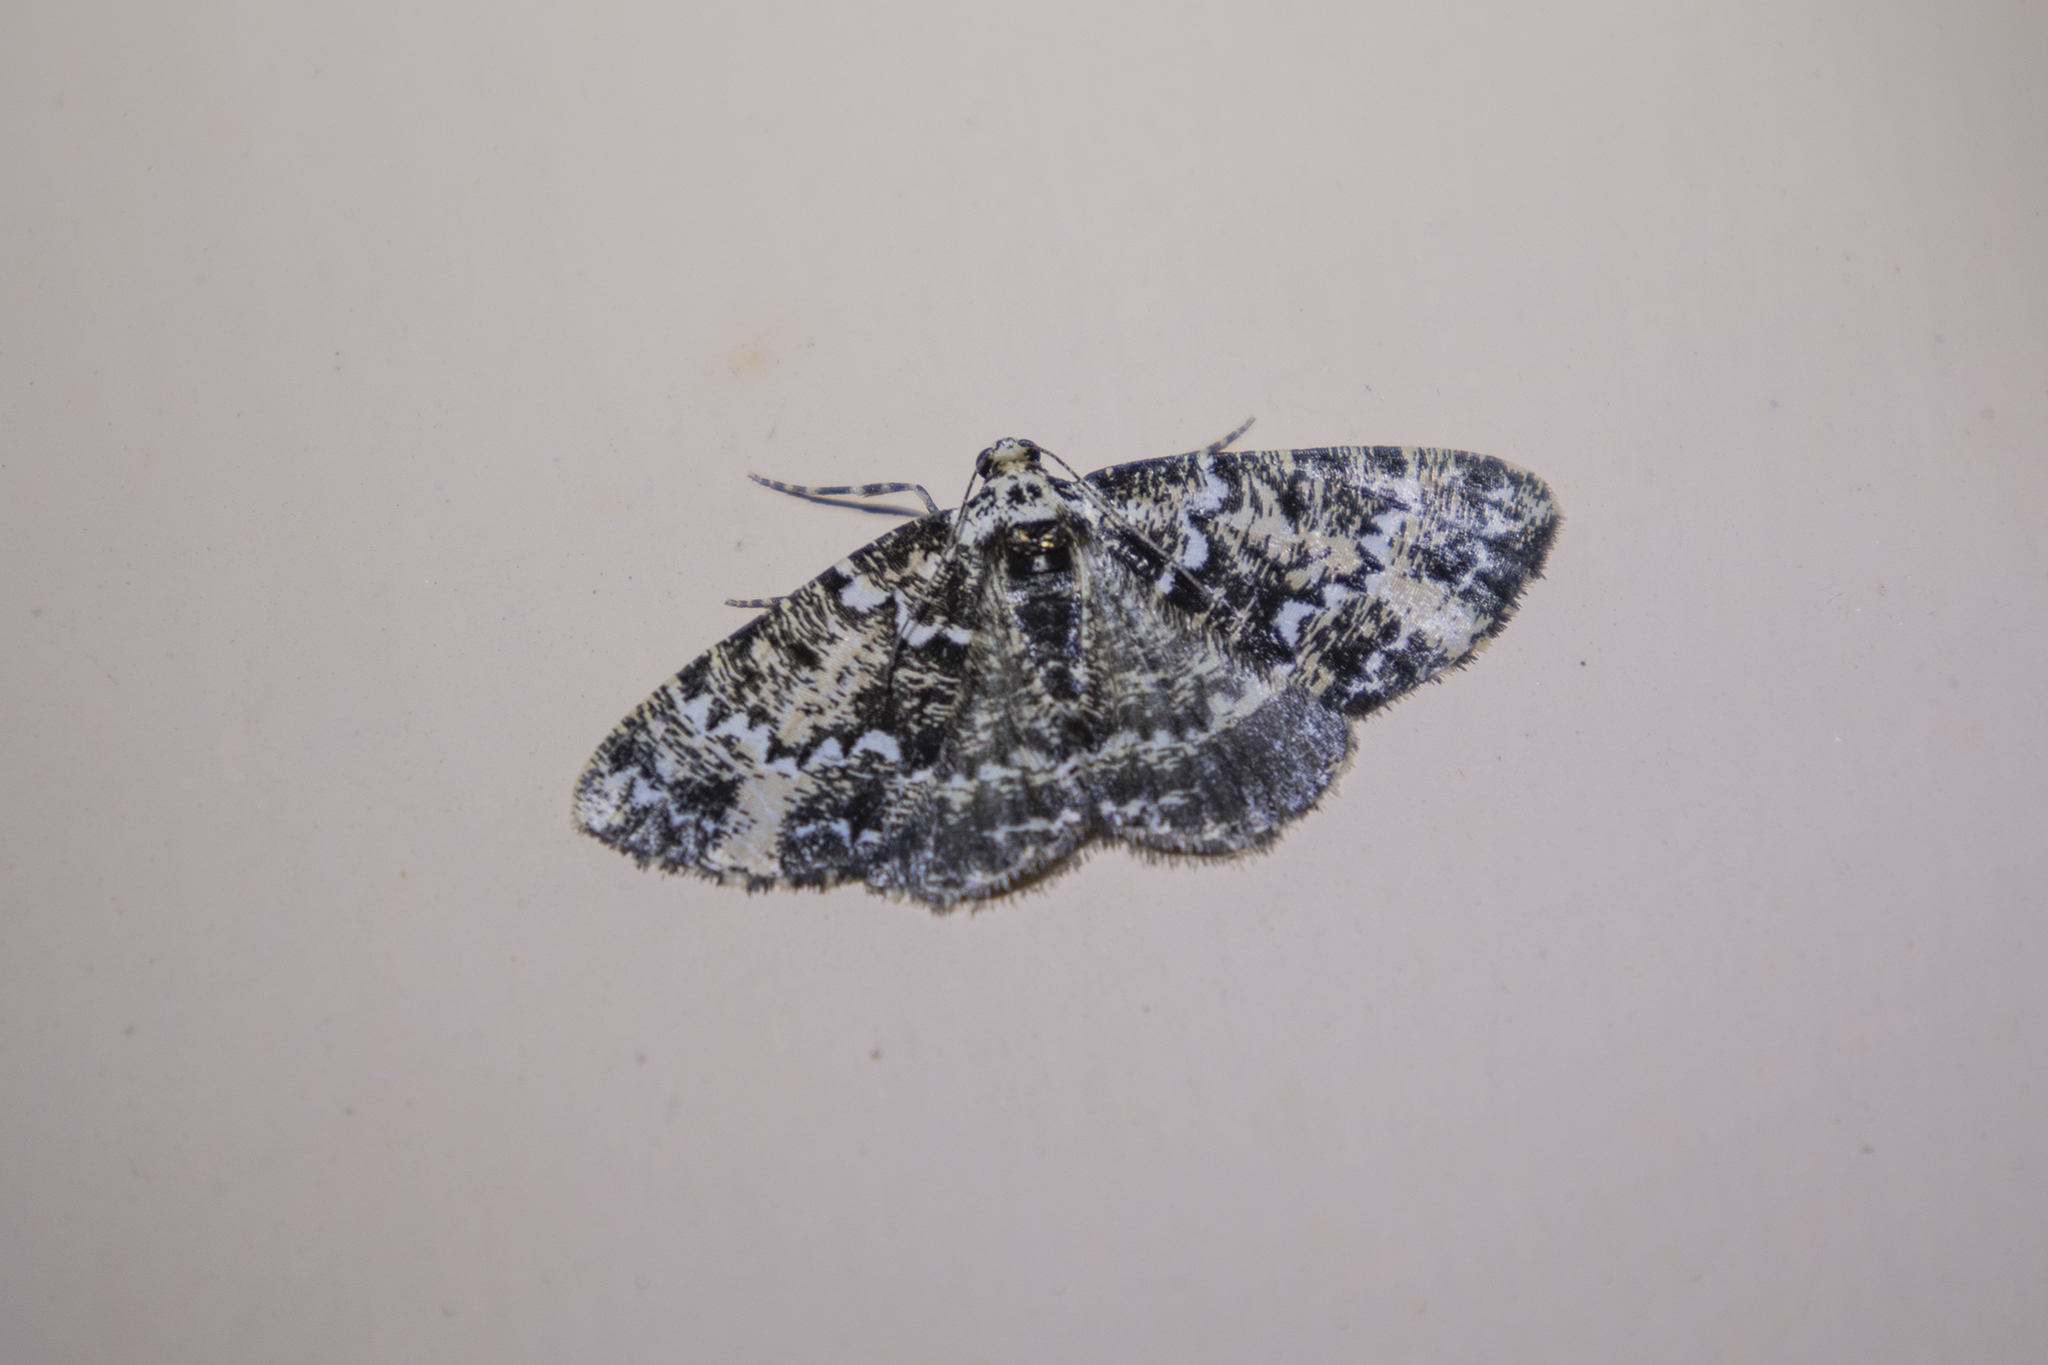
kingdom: Animalia
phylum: Arthropoda
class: Insecta
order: Lepidoptera
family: Geometridae
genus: Prochasma
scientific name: Prochasma mimica
